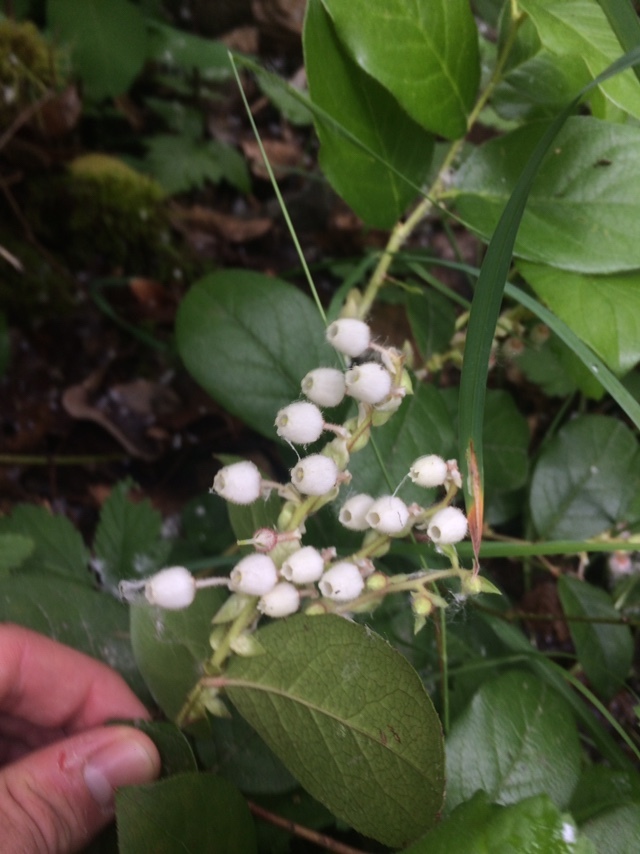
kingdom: Plantae
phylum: Tracheophyta
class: Magnoliopsida
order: Ericales
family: Ericaceae
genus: Gaultheria
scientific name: Gaultheria shallon
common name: Shallon
